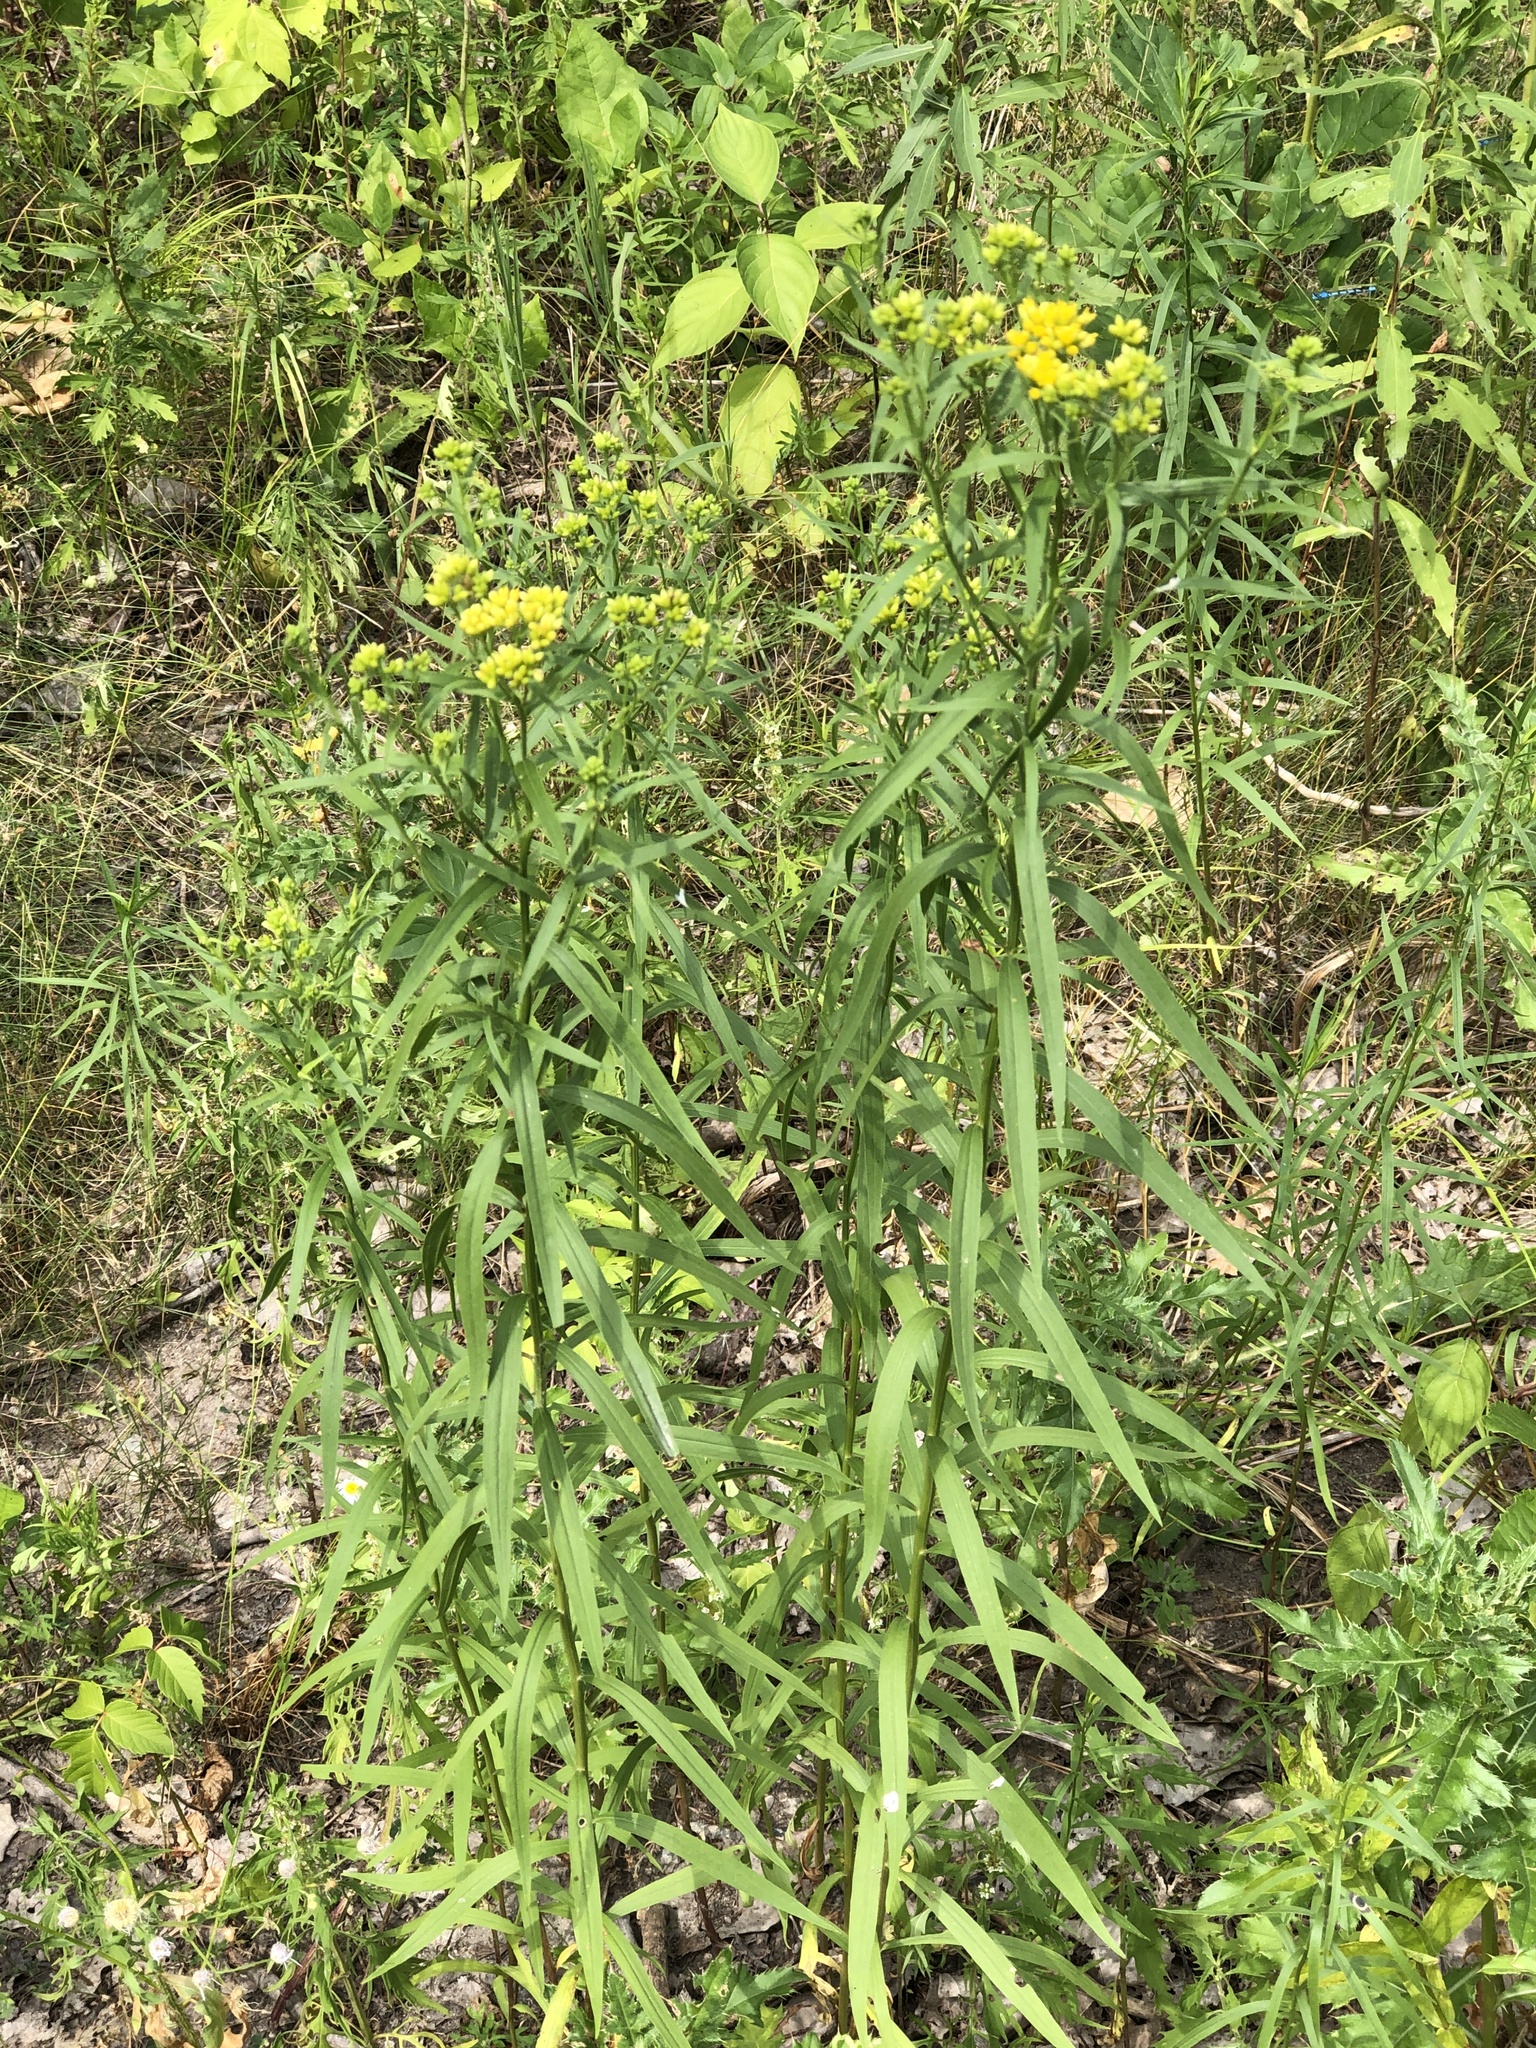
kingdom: Plantae
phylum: Tracheophyta
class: Magnoliopsida
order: Asterales
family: Asteraceae
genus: Euthamia
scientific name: Euthamia graminifolia
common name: Common goldentop
